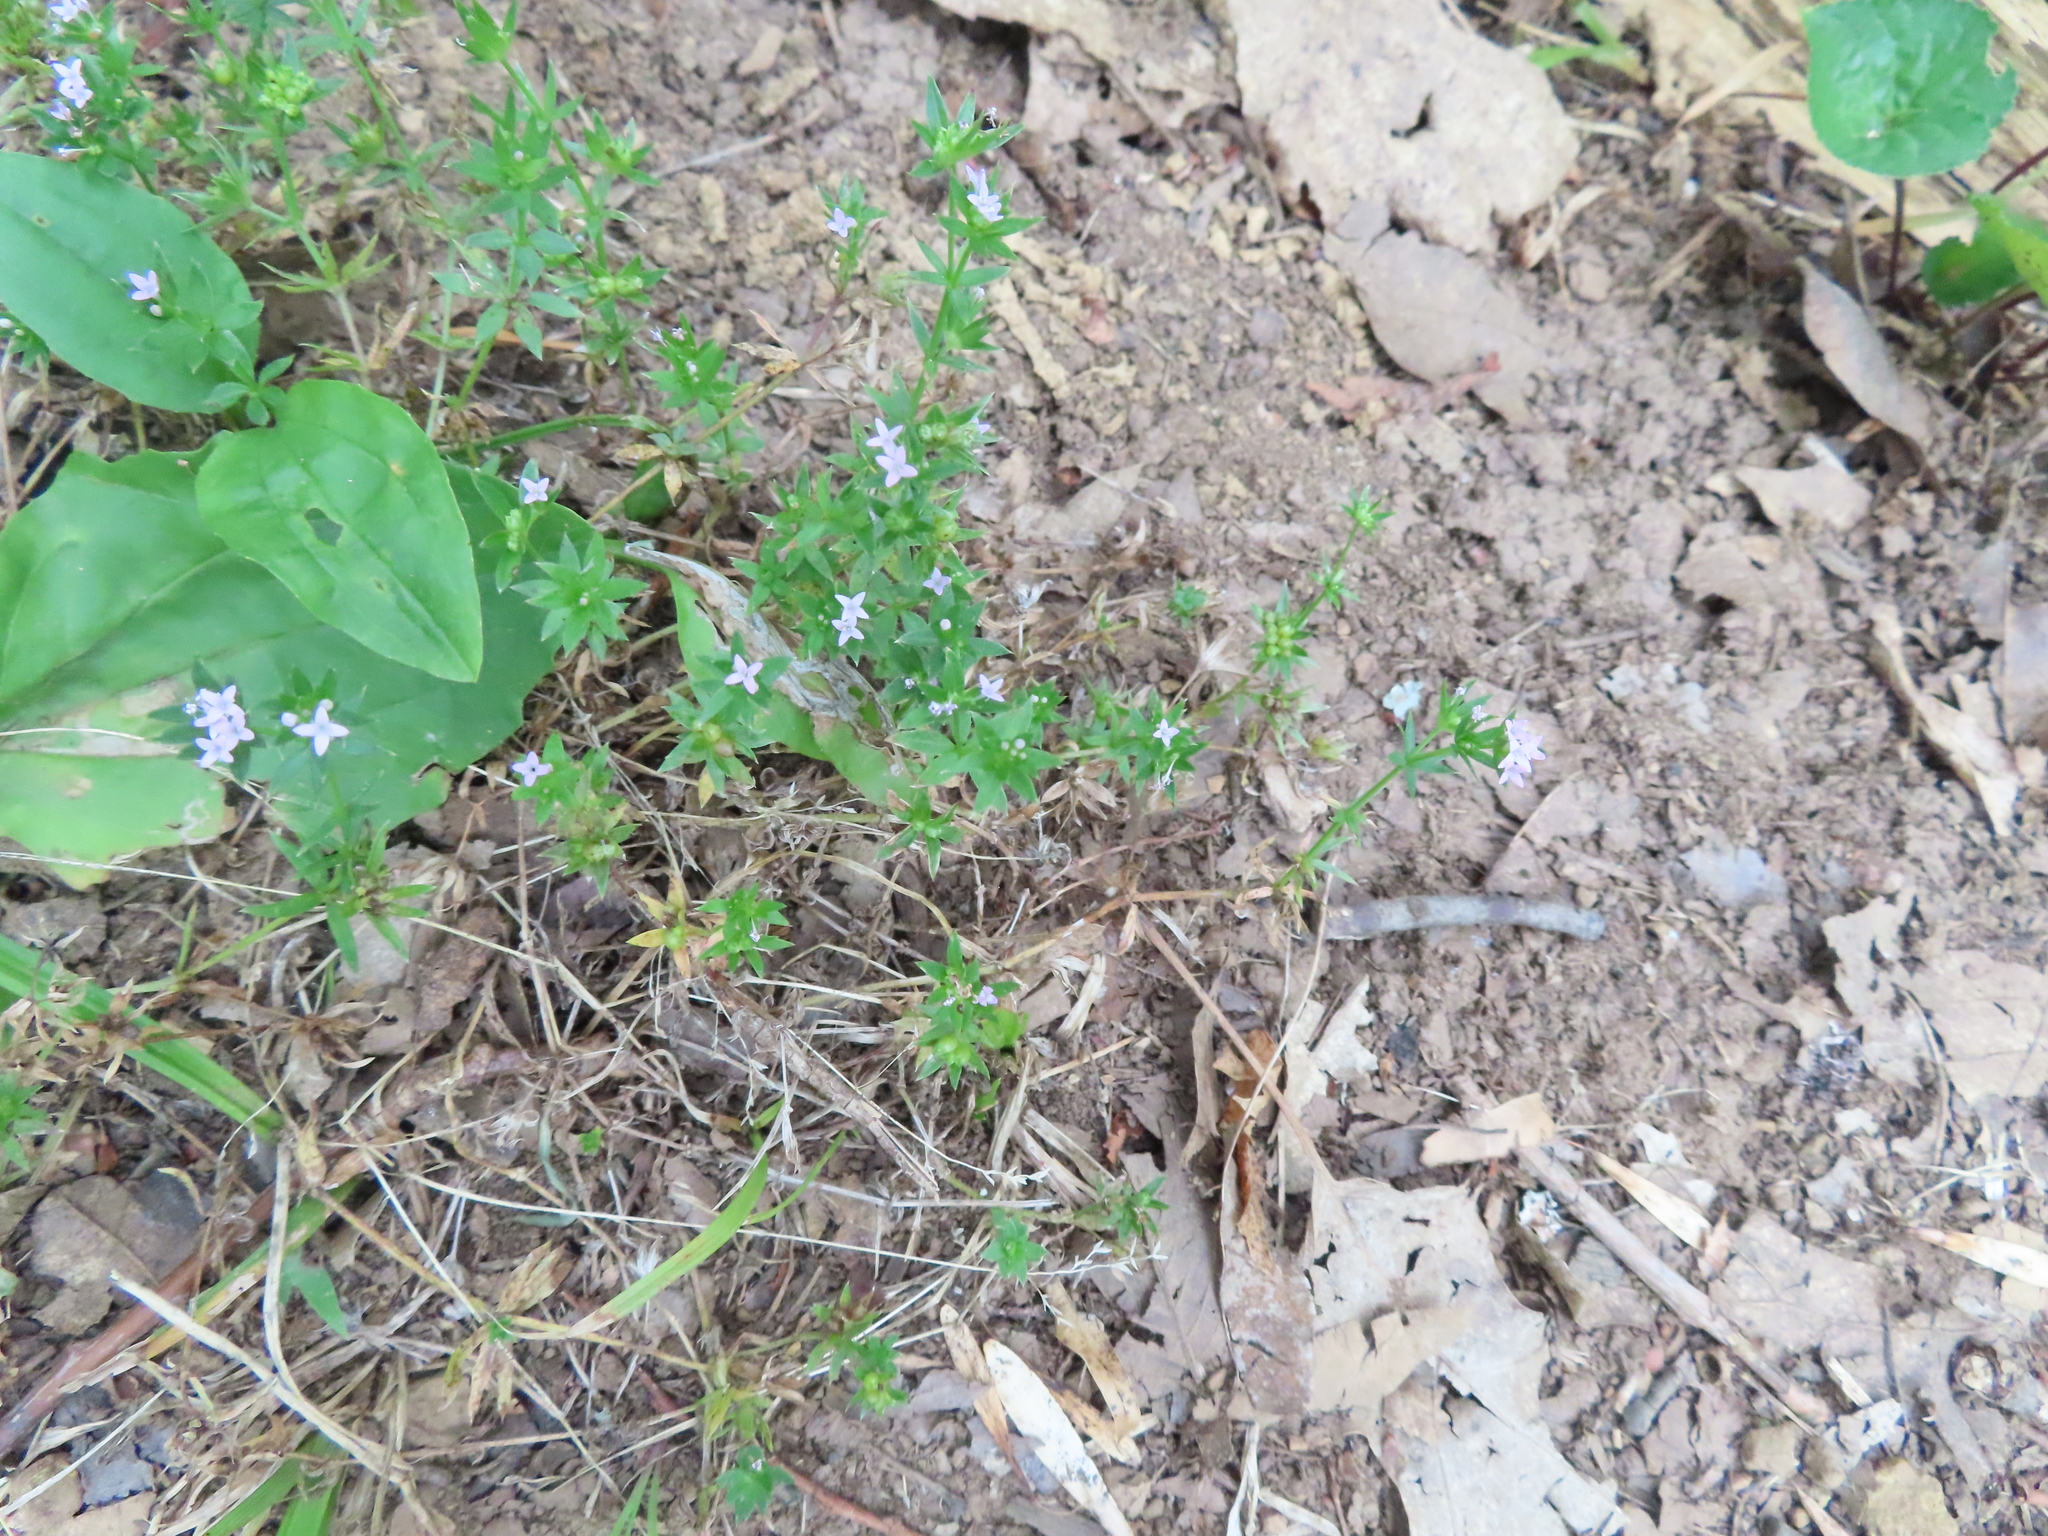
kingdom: Plantae
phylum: Tracheophyta
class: Magnoliopsida
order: Gentianales
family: Rubiaceae
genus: Sherardia
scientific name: Sherardia arvensis
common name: Field madder
